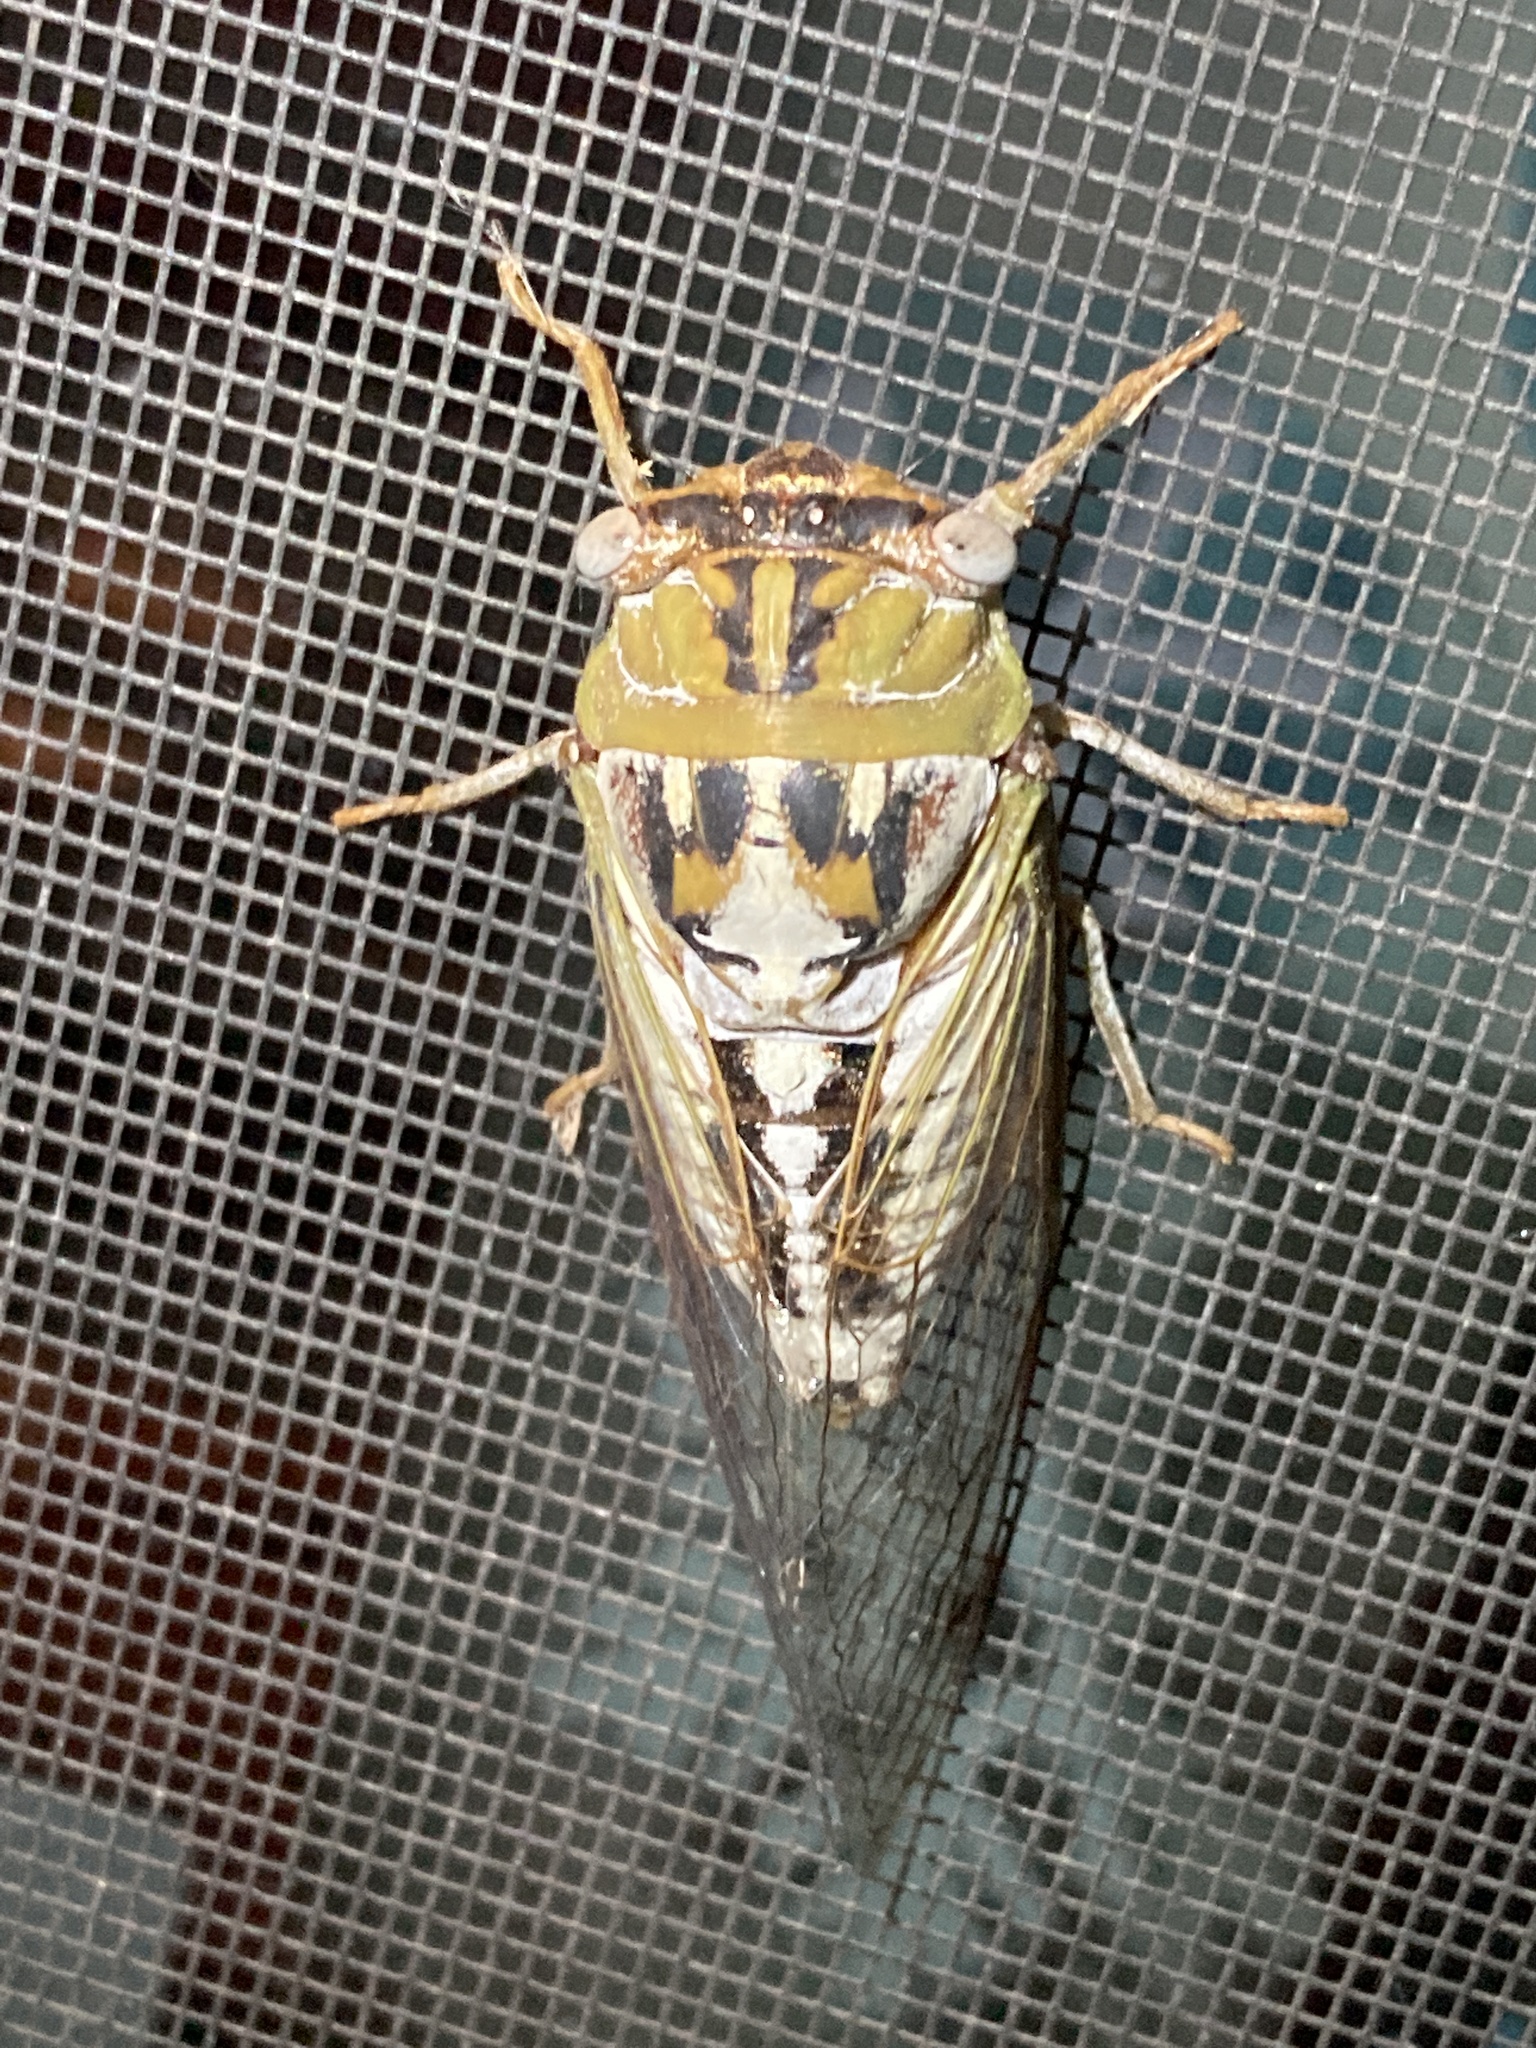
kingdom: Animalia
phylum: Arthropoda
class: Insecta
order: Hemiptera
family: Cicadidae
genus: Megatibicen
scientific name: Megatibicen dealbatus
